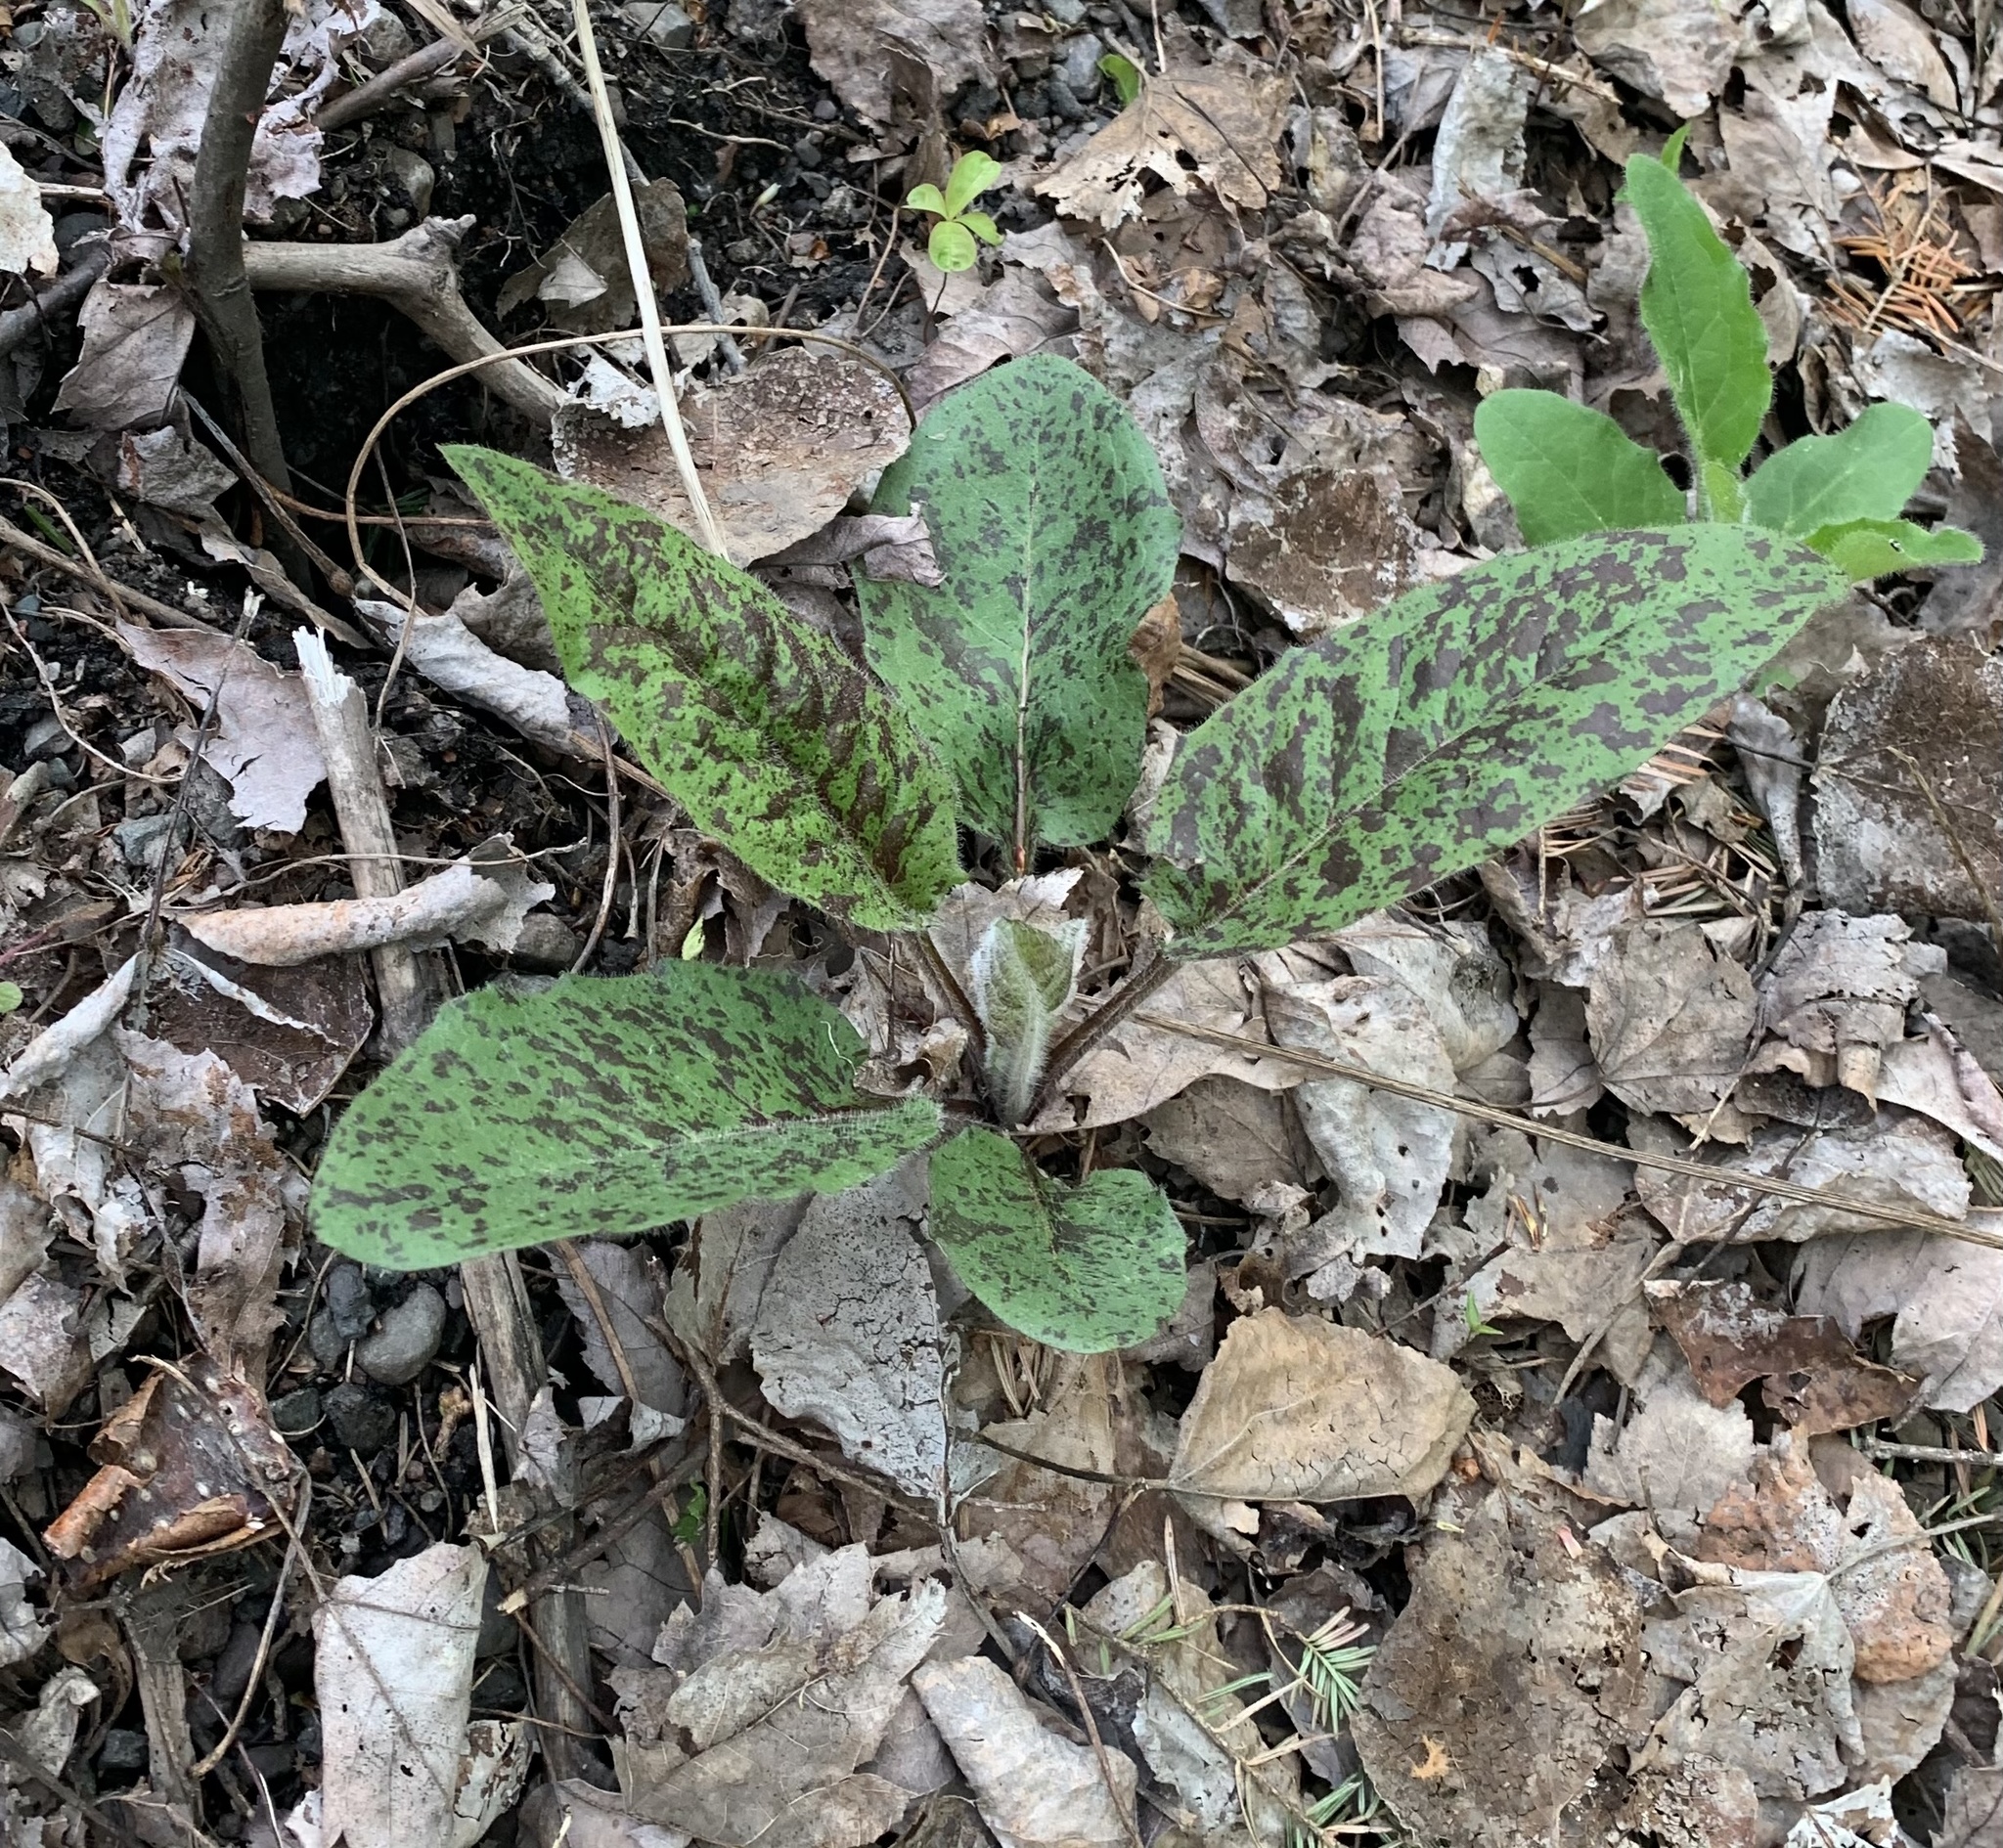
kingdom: Plantae
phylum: Tracheophyta
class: Magnoliopsida
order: Asterales
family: Asteraceae
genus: Hieracium
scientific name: Hieracium maculatum
